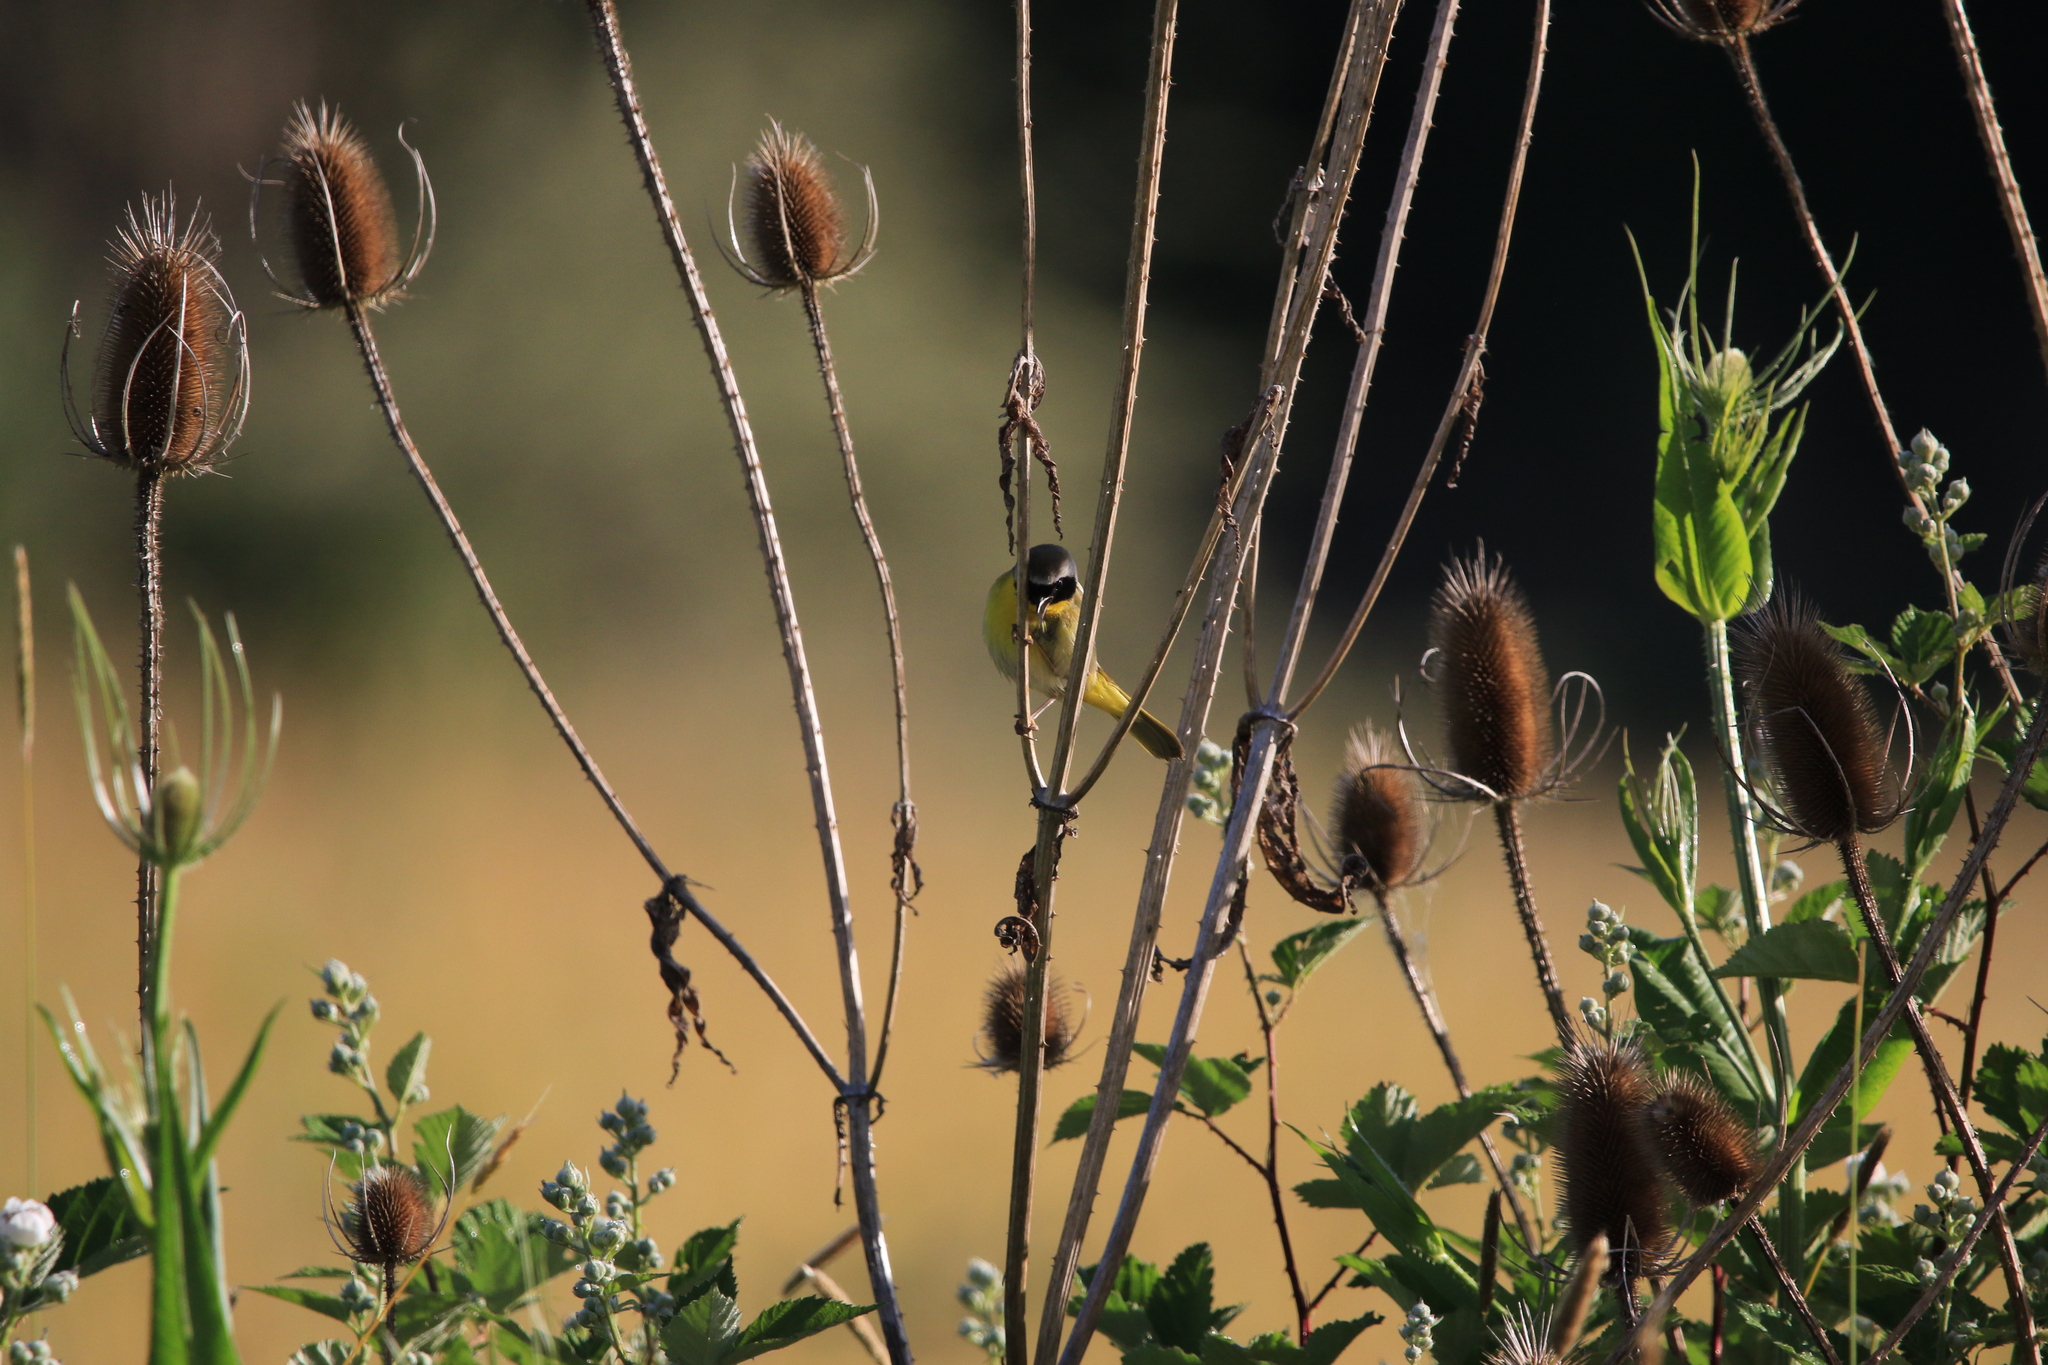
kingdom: Animalia
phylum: Chordata
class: Aves
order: Passeriformes
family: Parulidae
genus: Geothlypis
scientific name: Geothlypis trichas
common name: Common yellowthroat
